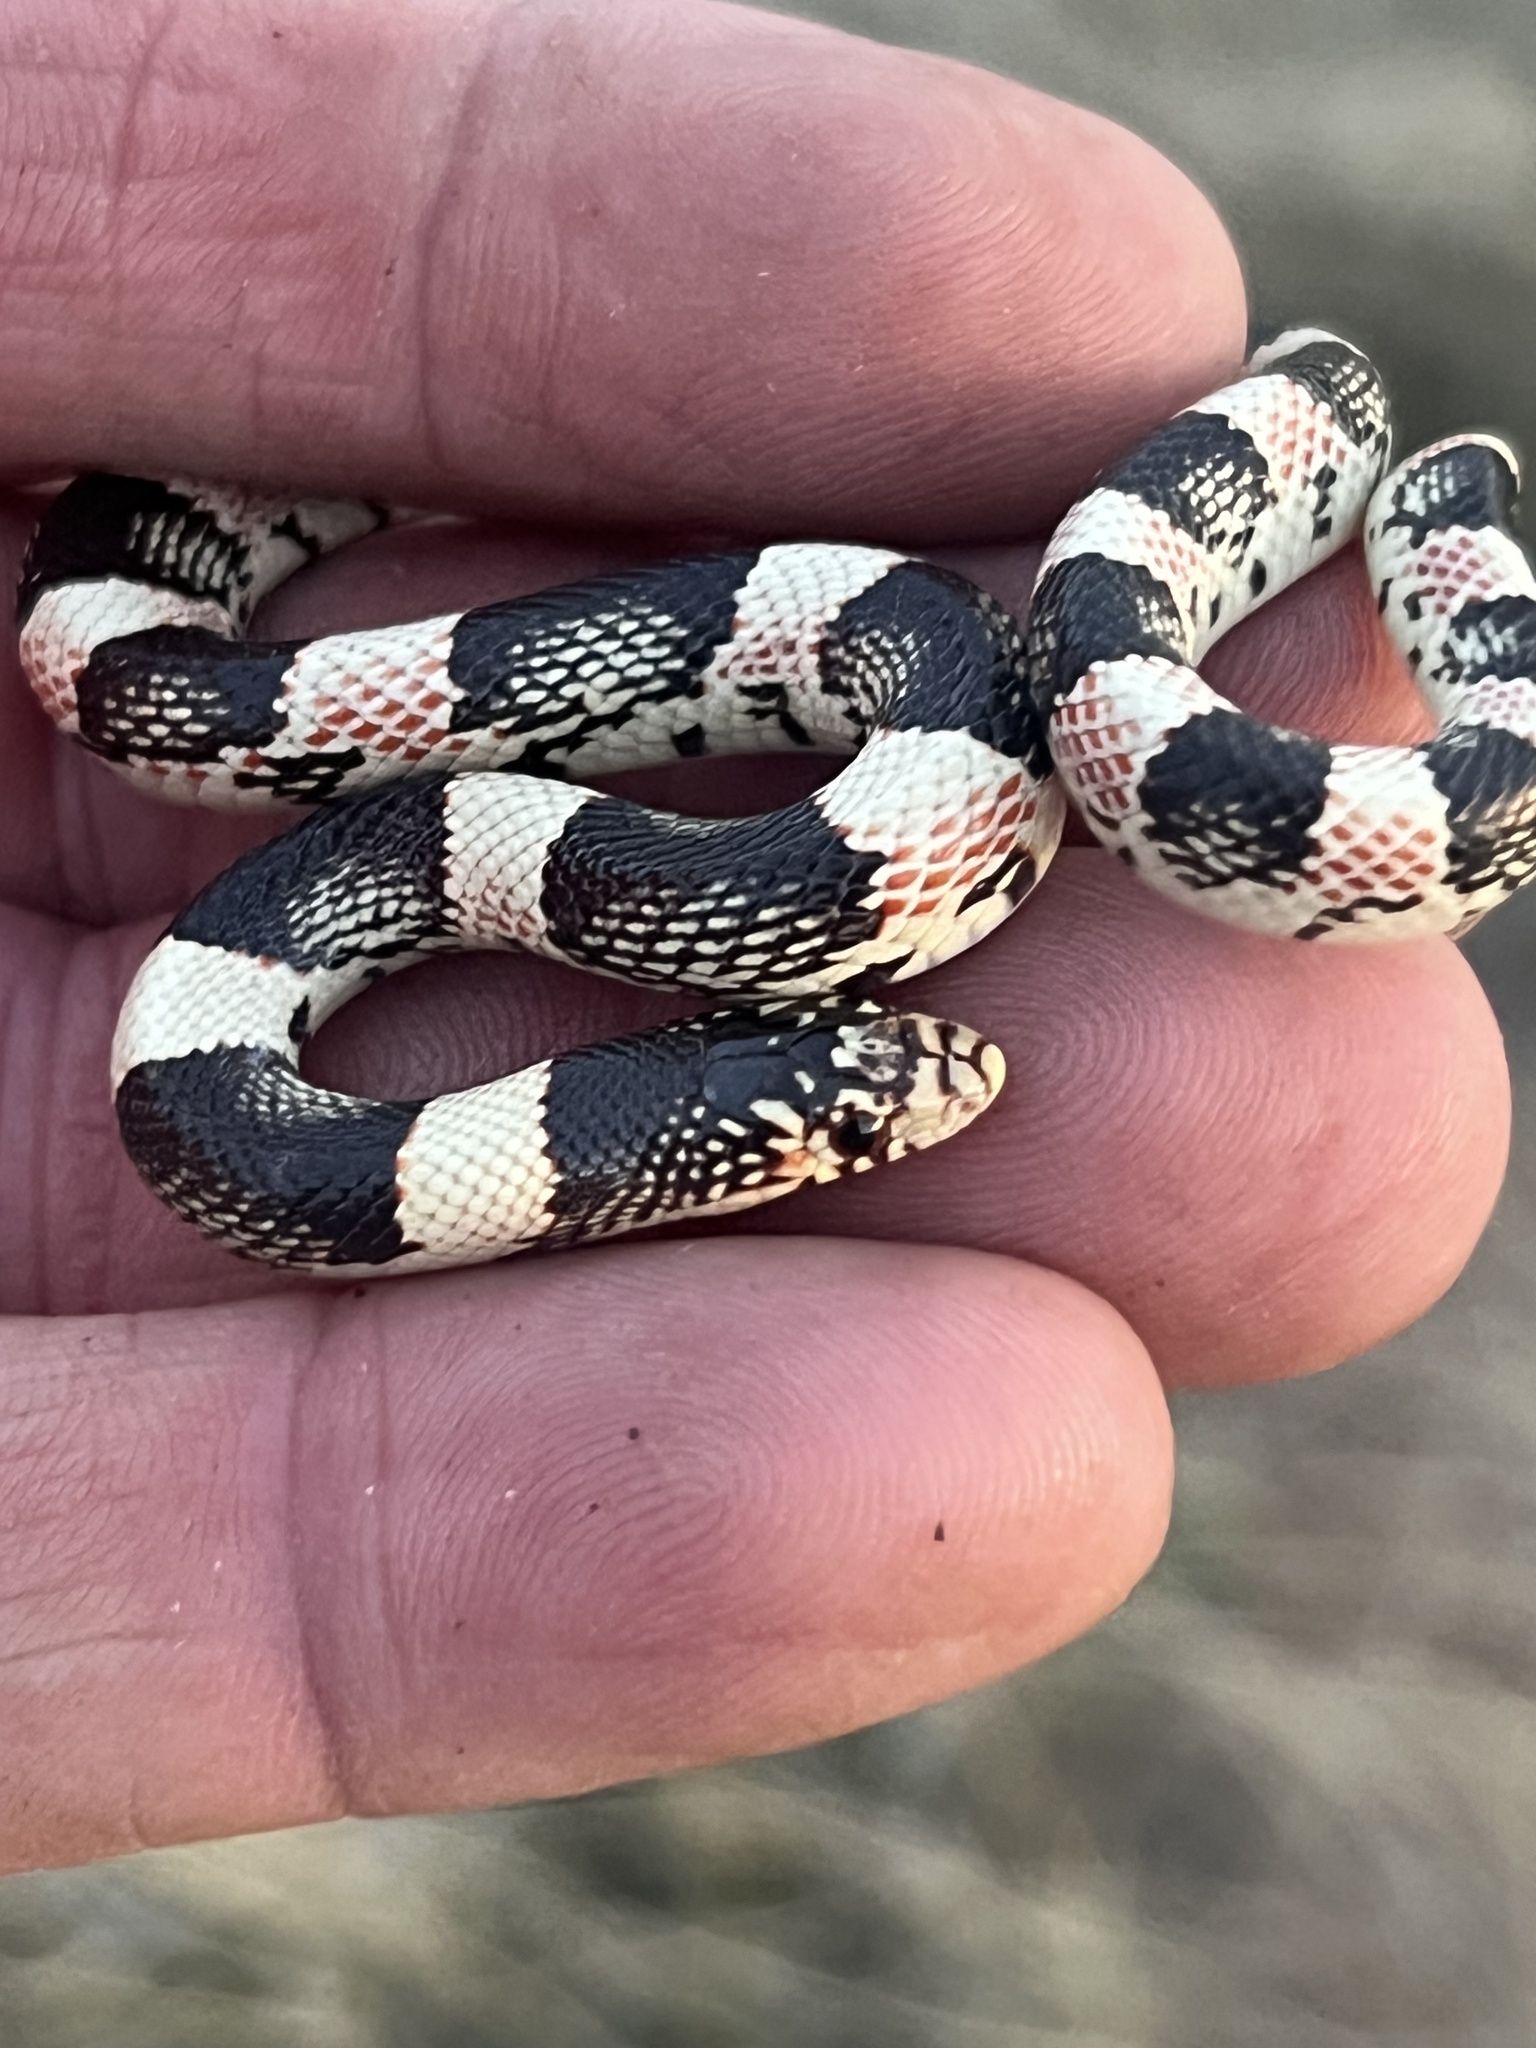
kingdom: Animalia
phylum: Chordata
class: Squamata
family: Colubridae
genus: Rhinocheilus
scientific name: Rhinocheilus lecontei
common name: Longnose snake
